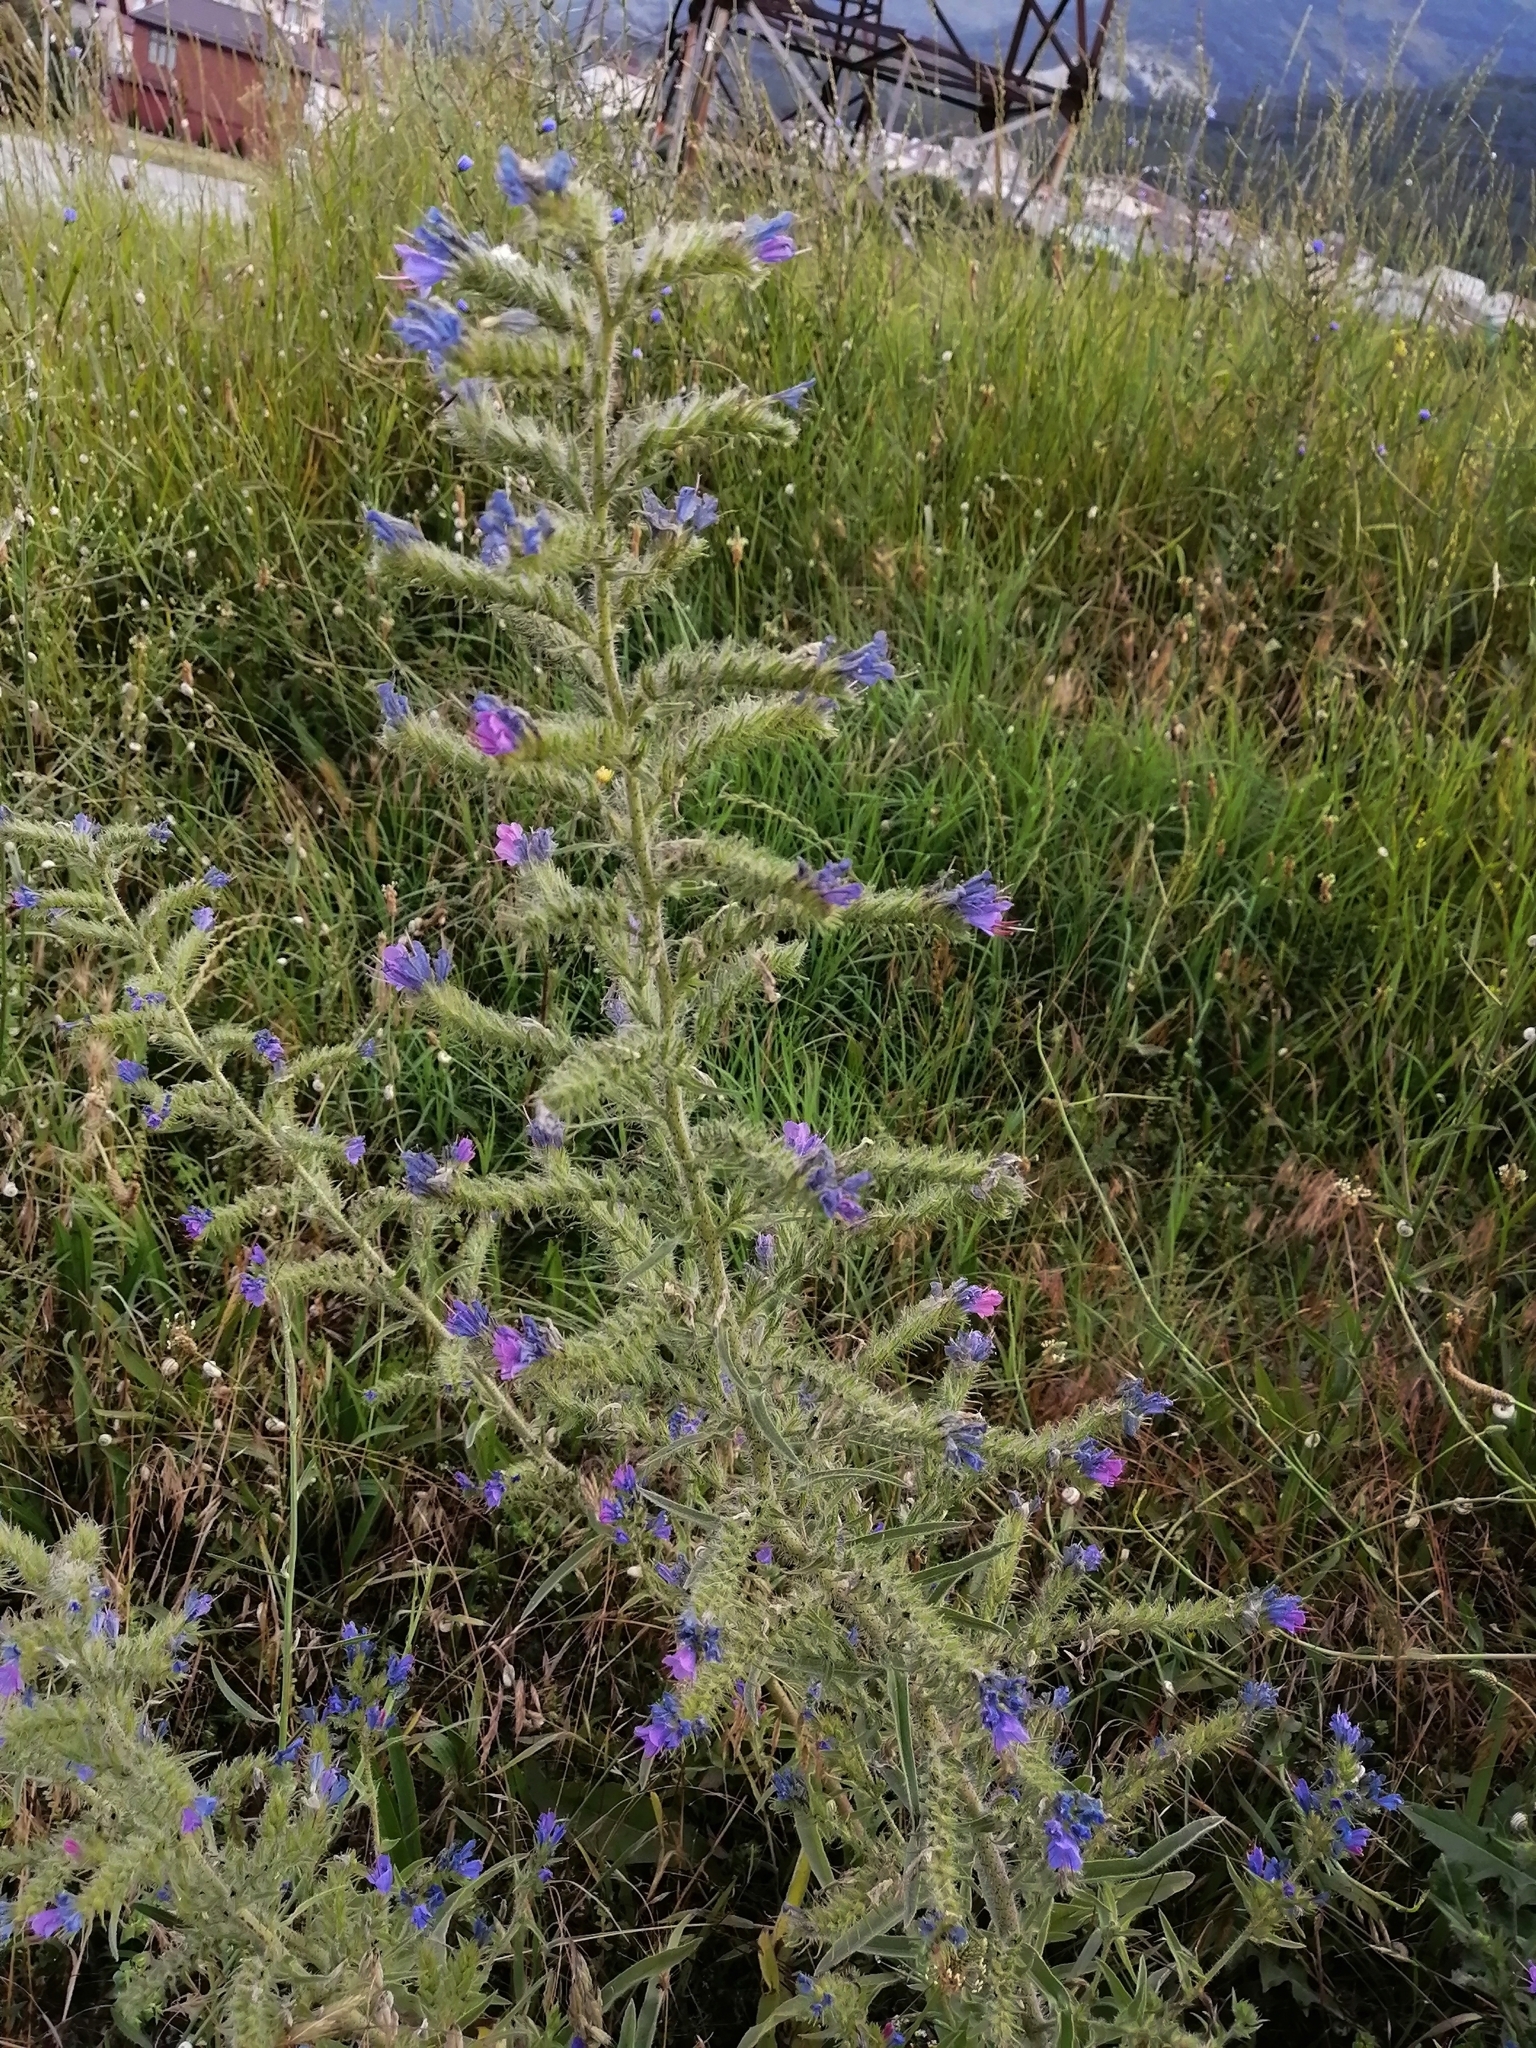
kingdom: Plantae
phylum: Tracheophyta
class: Magnoliopsida
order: Boraginales
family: Boraginaceae
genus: Echium
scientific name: Echium vulgare
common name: Common viper's bugloss
